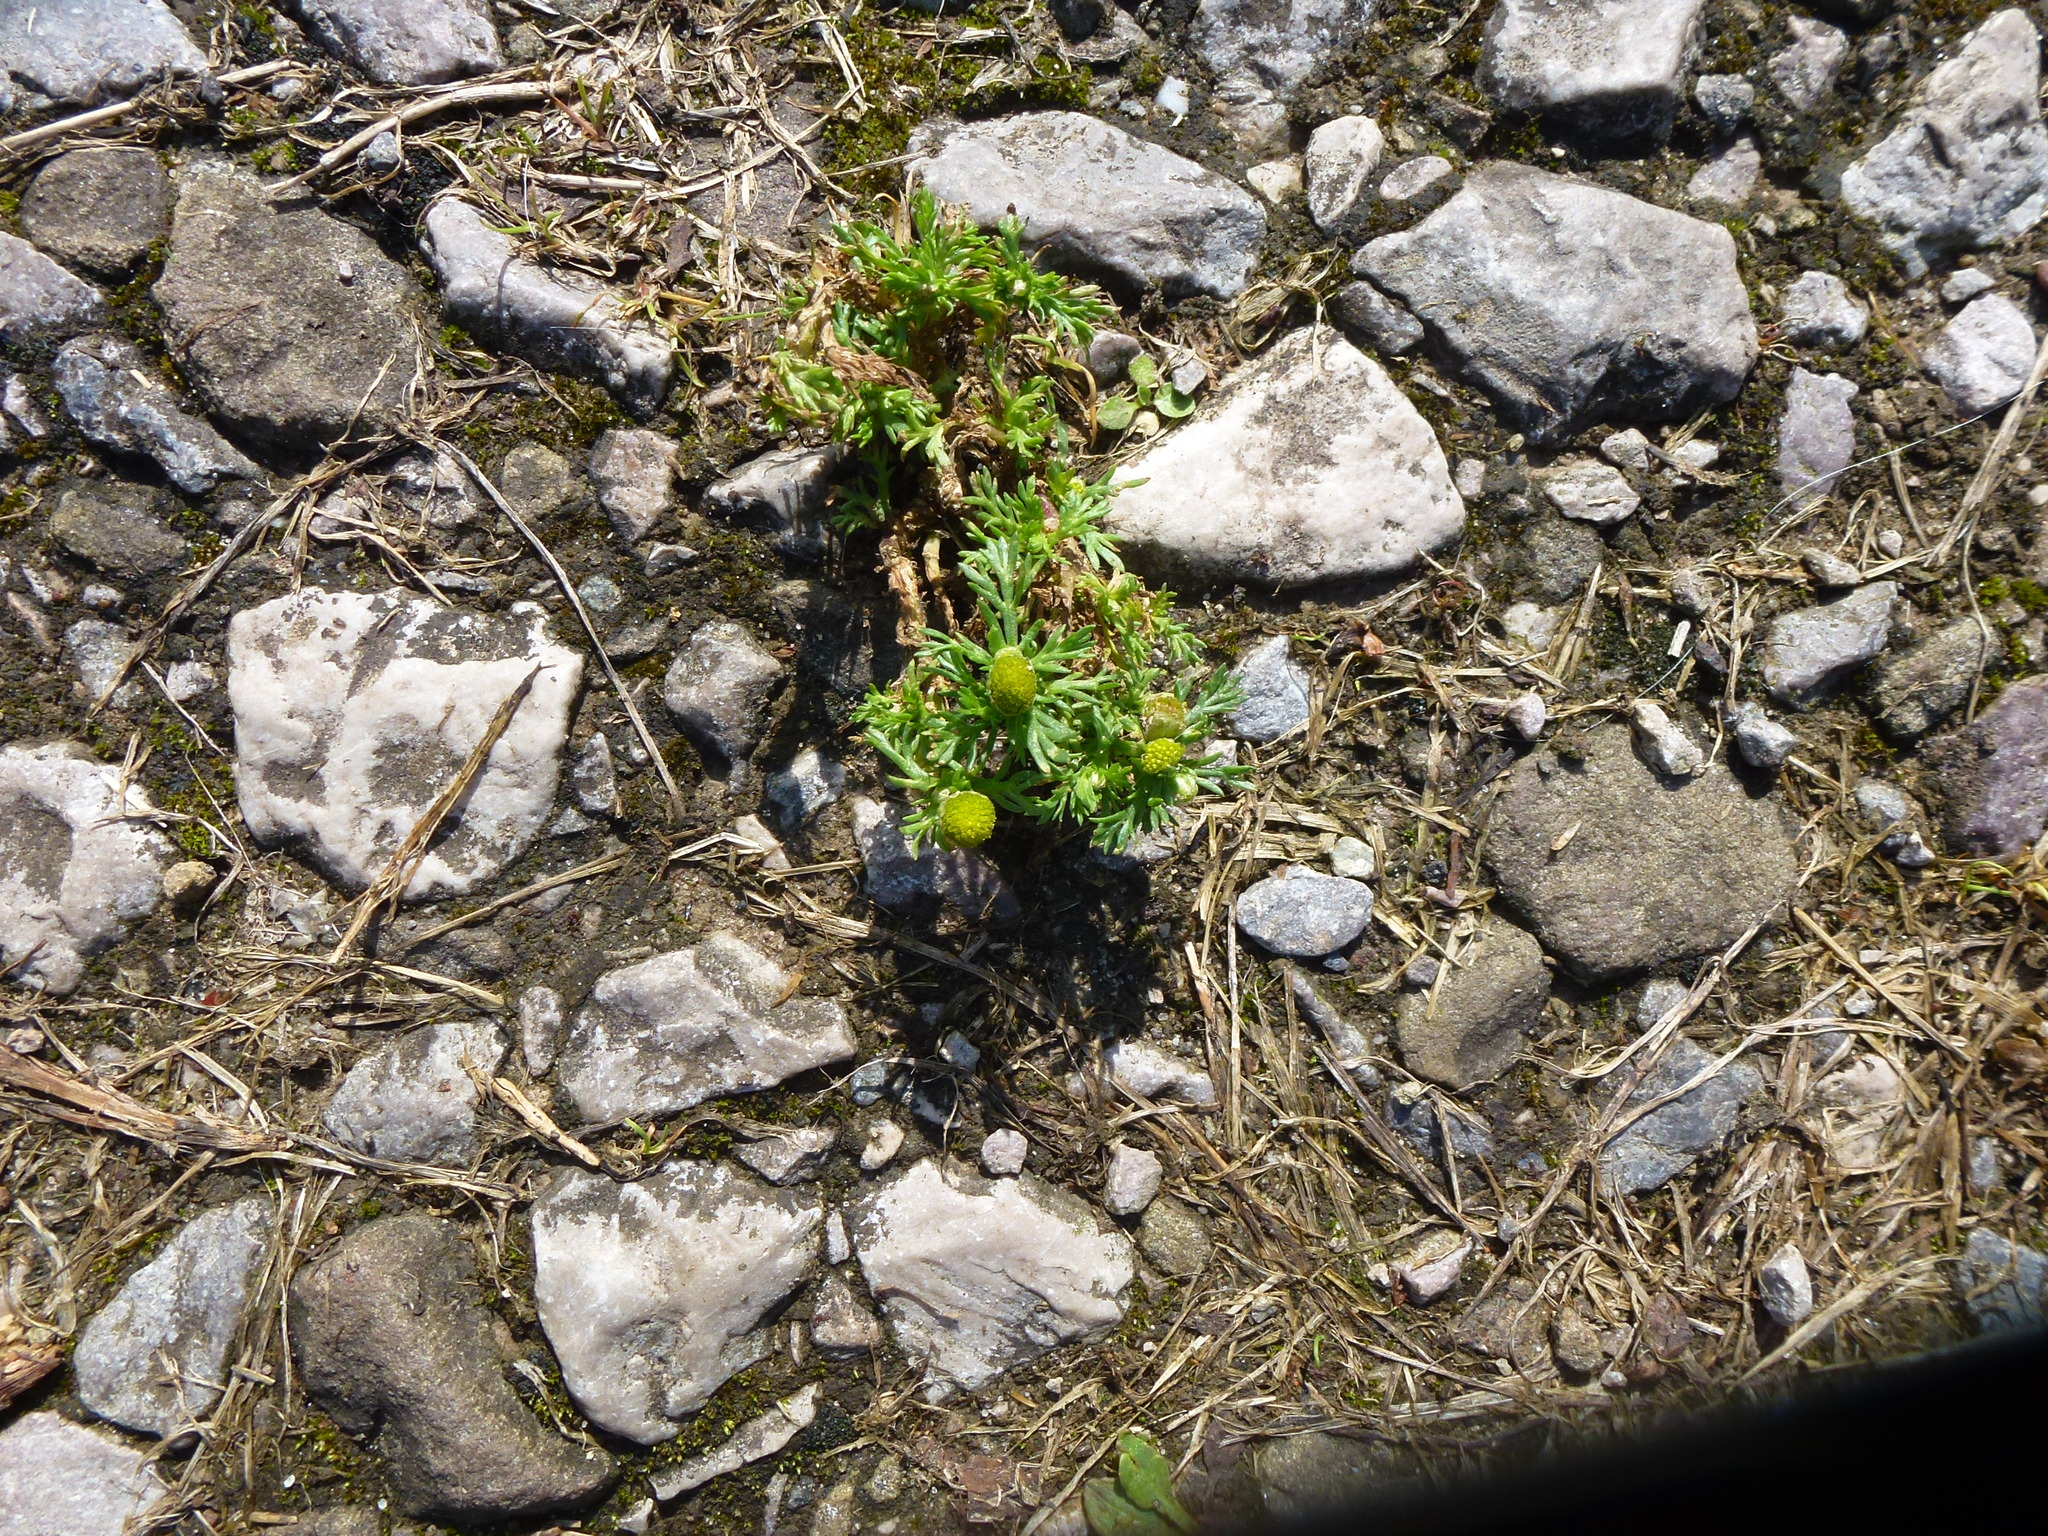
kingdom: Plantae
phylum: Tracheophyta
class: Magnoliopsida
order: Asterales
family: Asteraceae
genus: Matricaria
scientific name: Matricaria discoidea
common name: Disc mayweed
